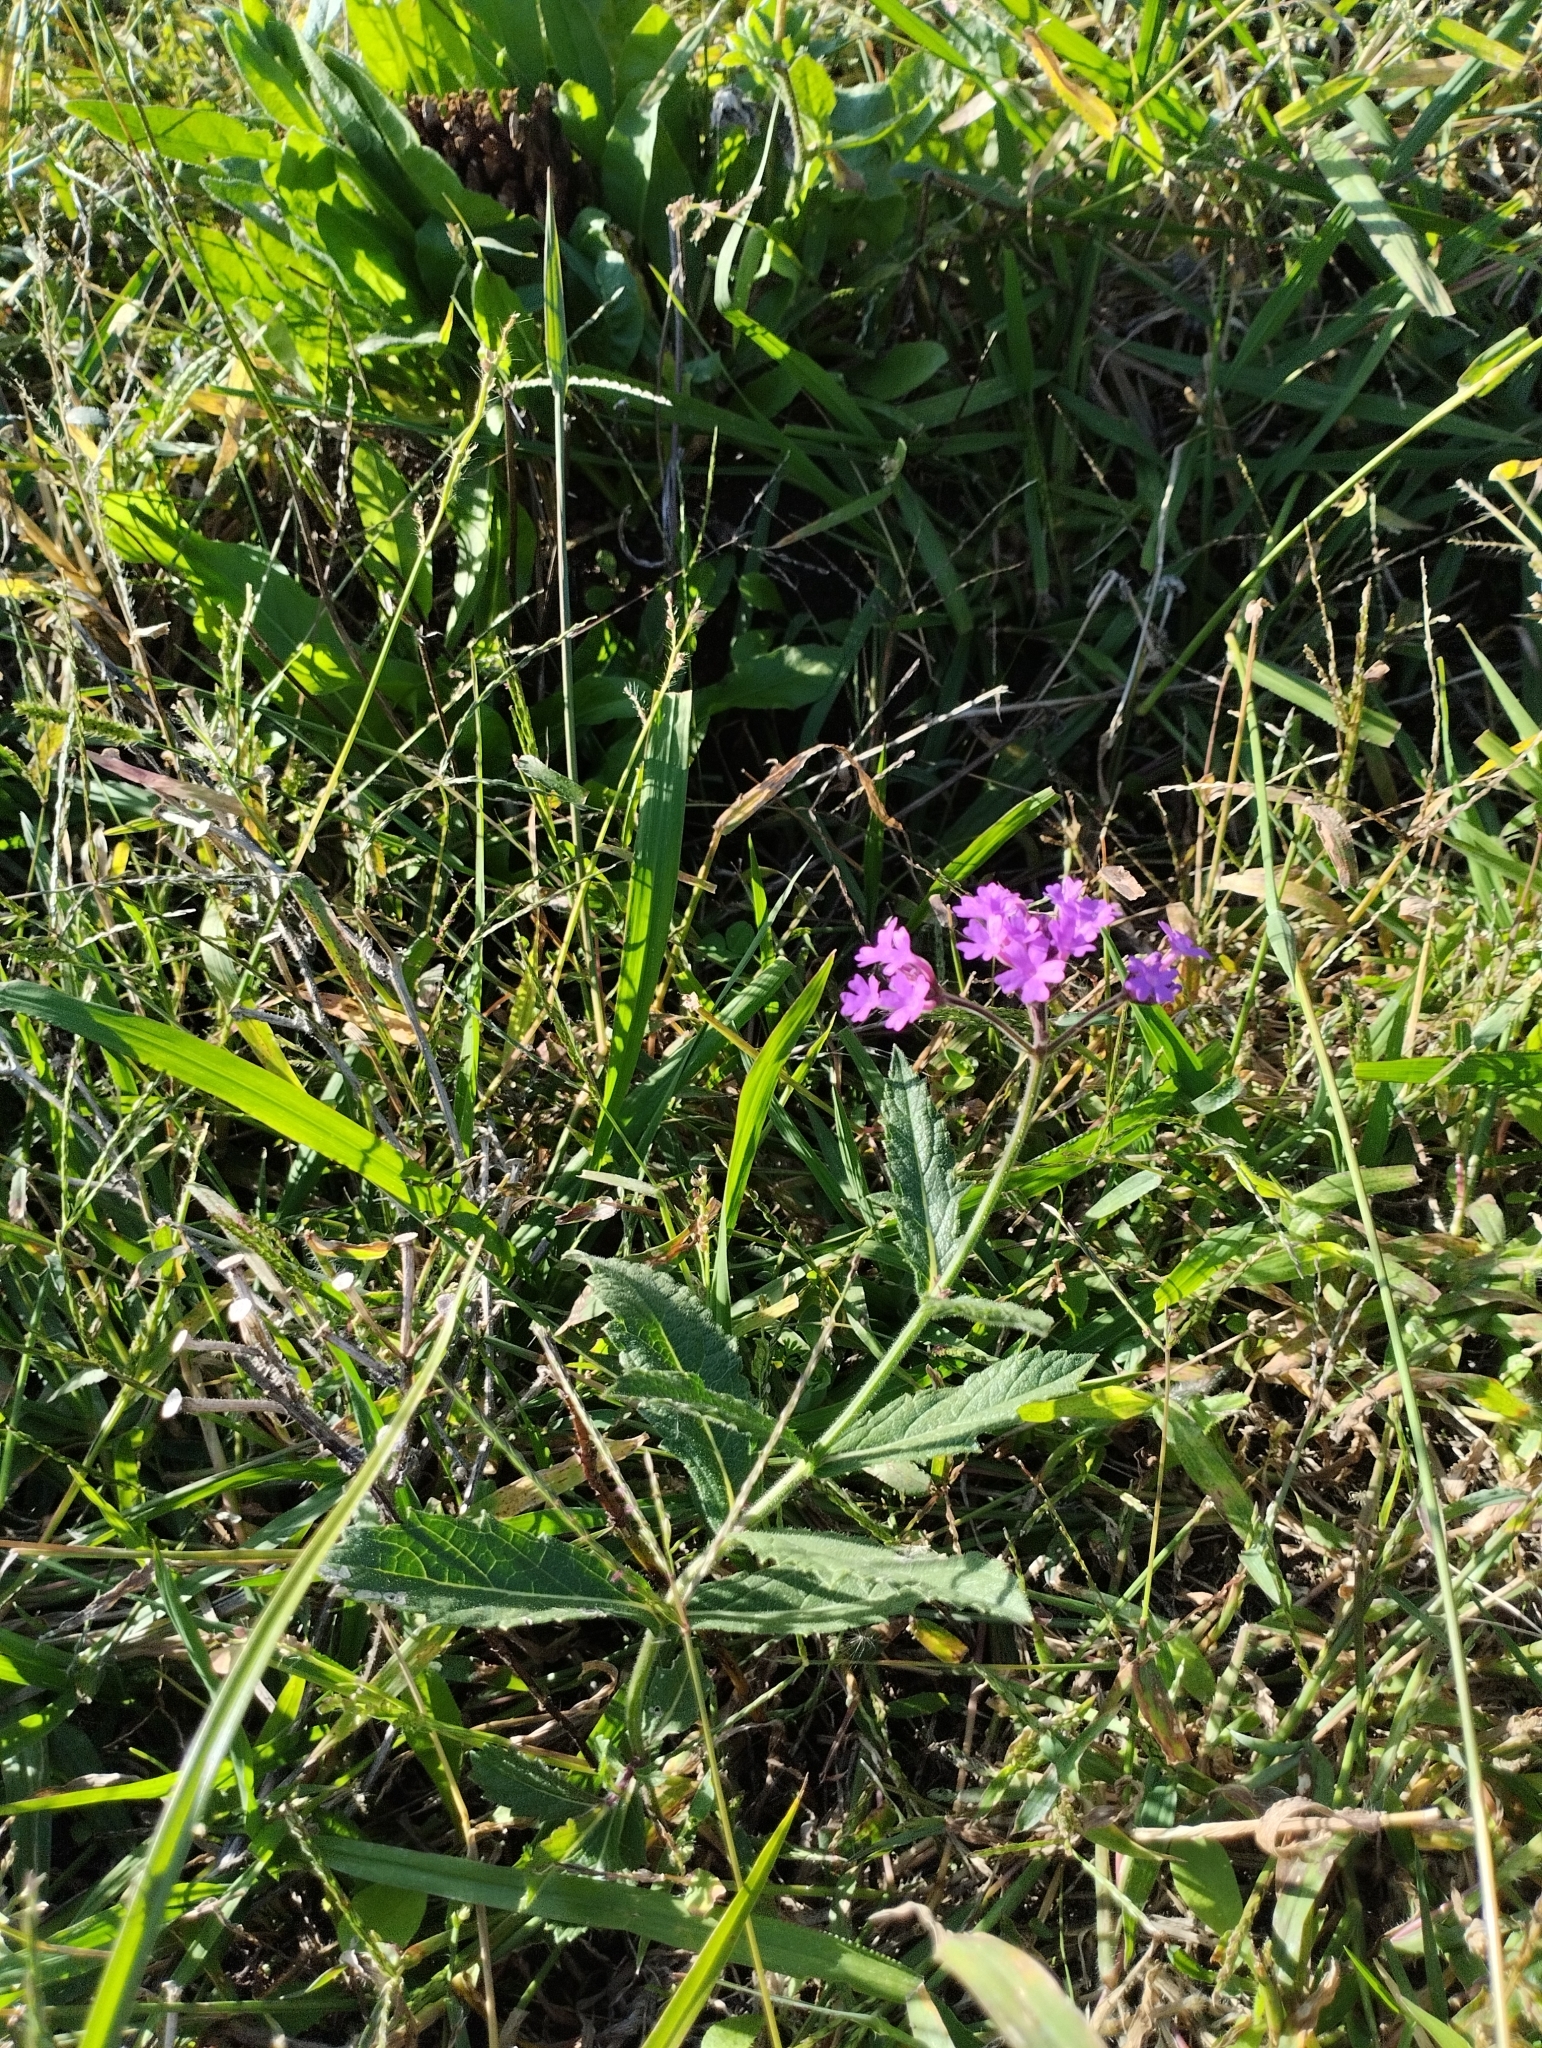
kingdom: Plantae
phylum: Tracheophyta
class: Magnoliopsida
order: Lamiales
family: Verbenaceae
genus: Verbena
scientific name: Verbena rigida
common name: Slender vervain
